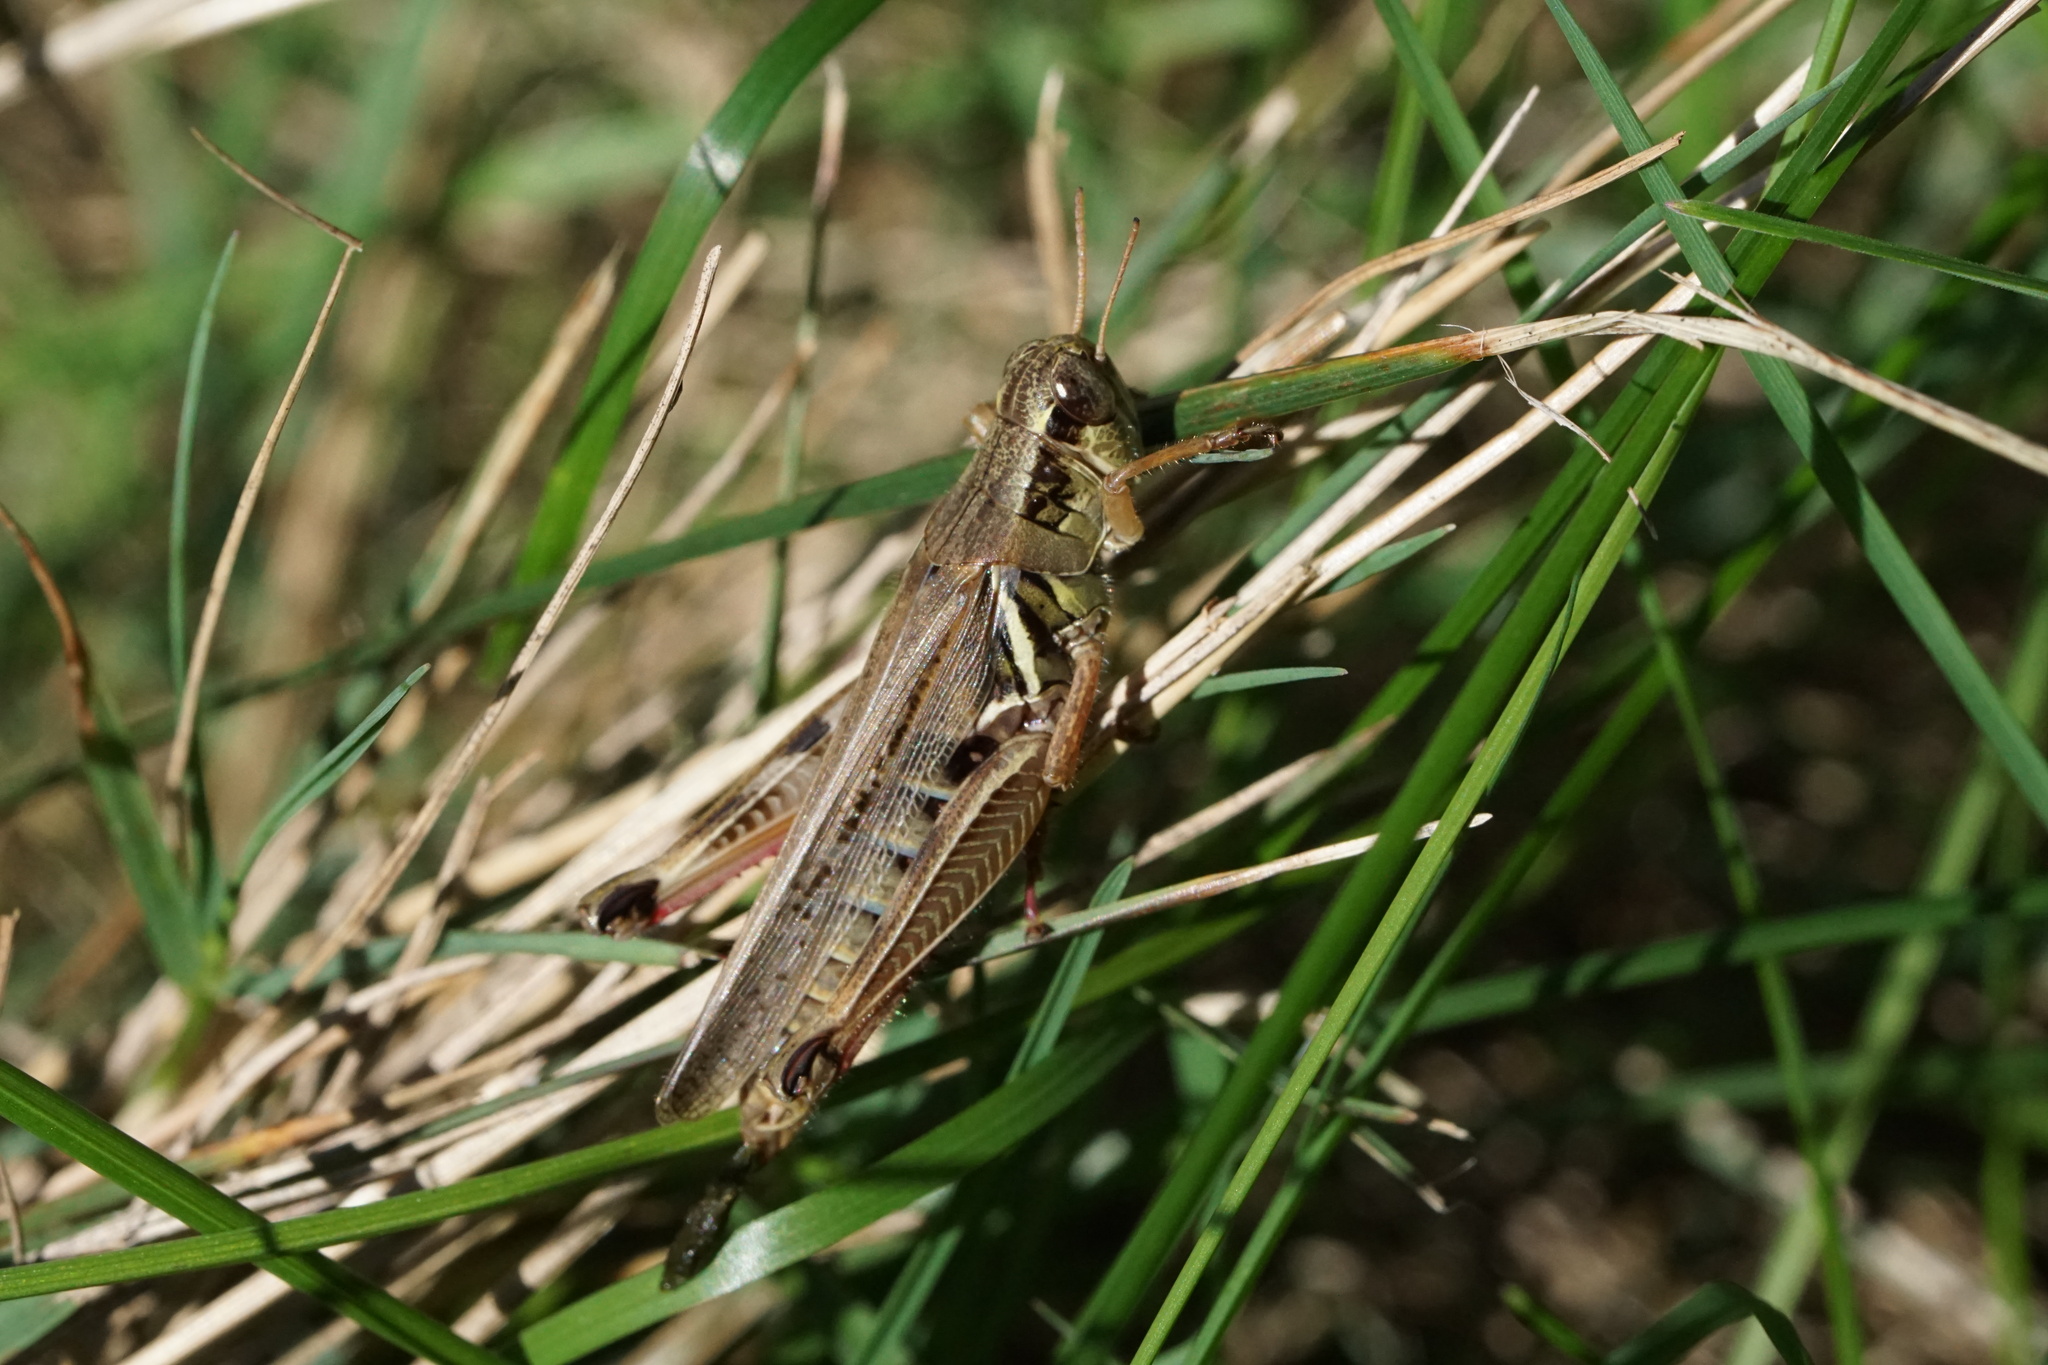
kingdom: Animalia
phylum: Arthropoda
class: Insecta
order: Orthoptera
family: Acrididae
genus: Melanoplus
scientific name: Melanoplus femurrubrum
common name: Red-legged grasshopper
